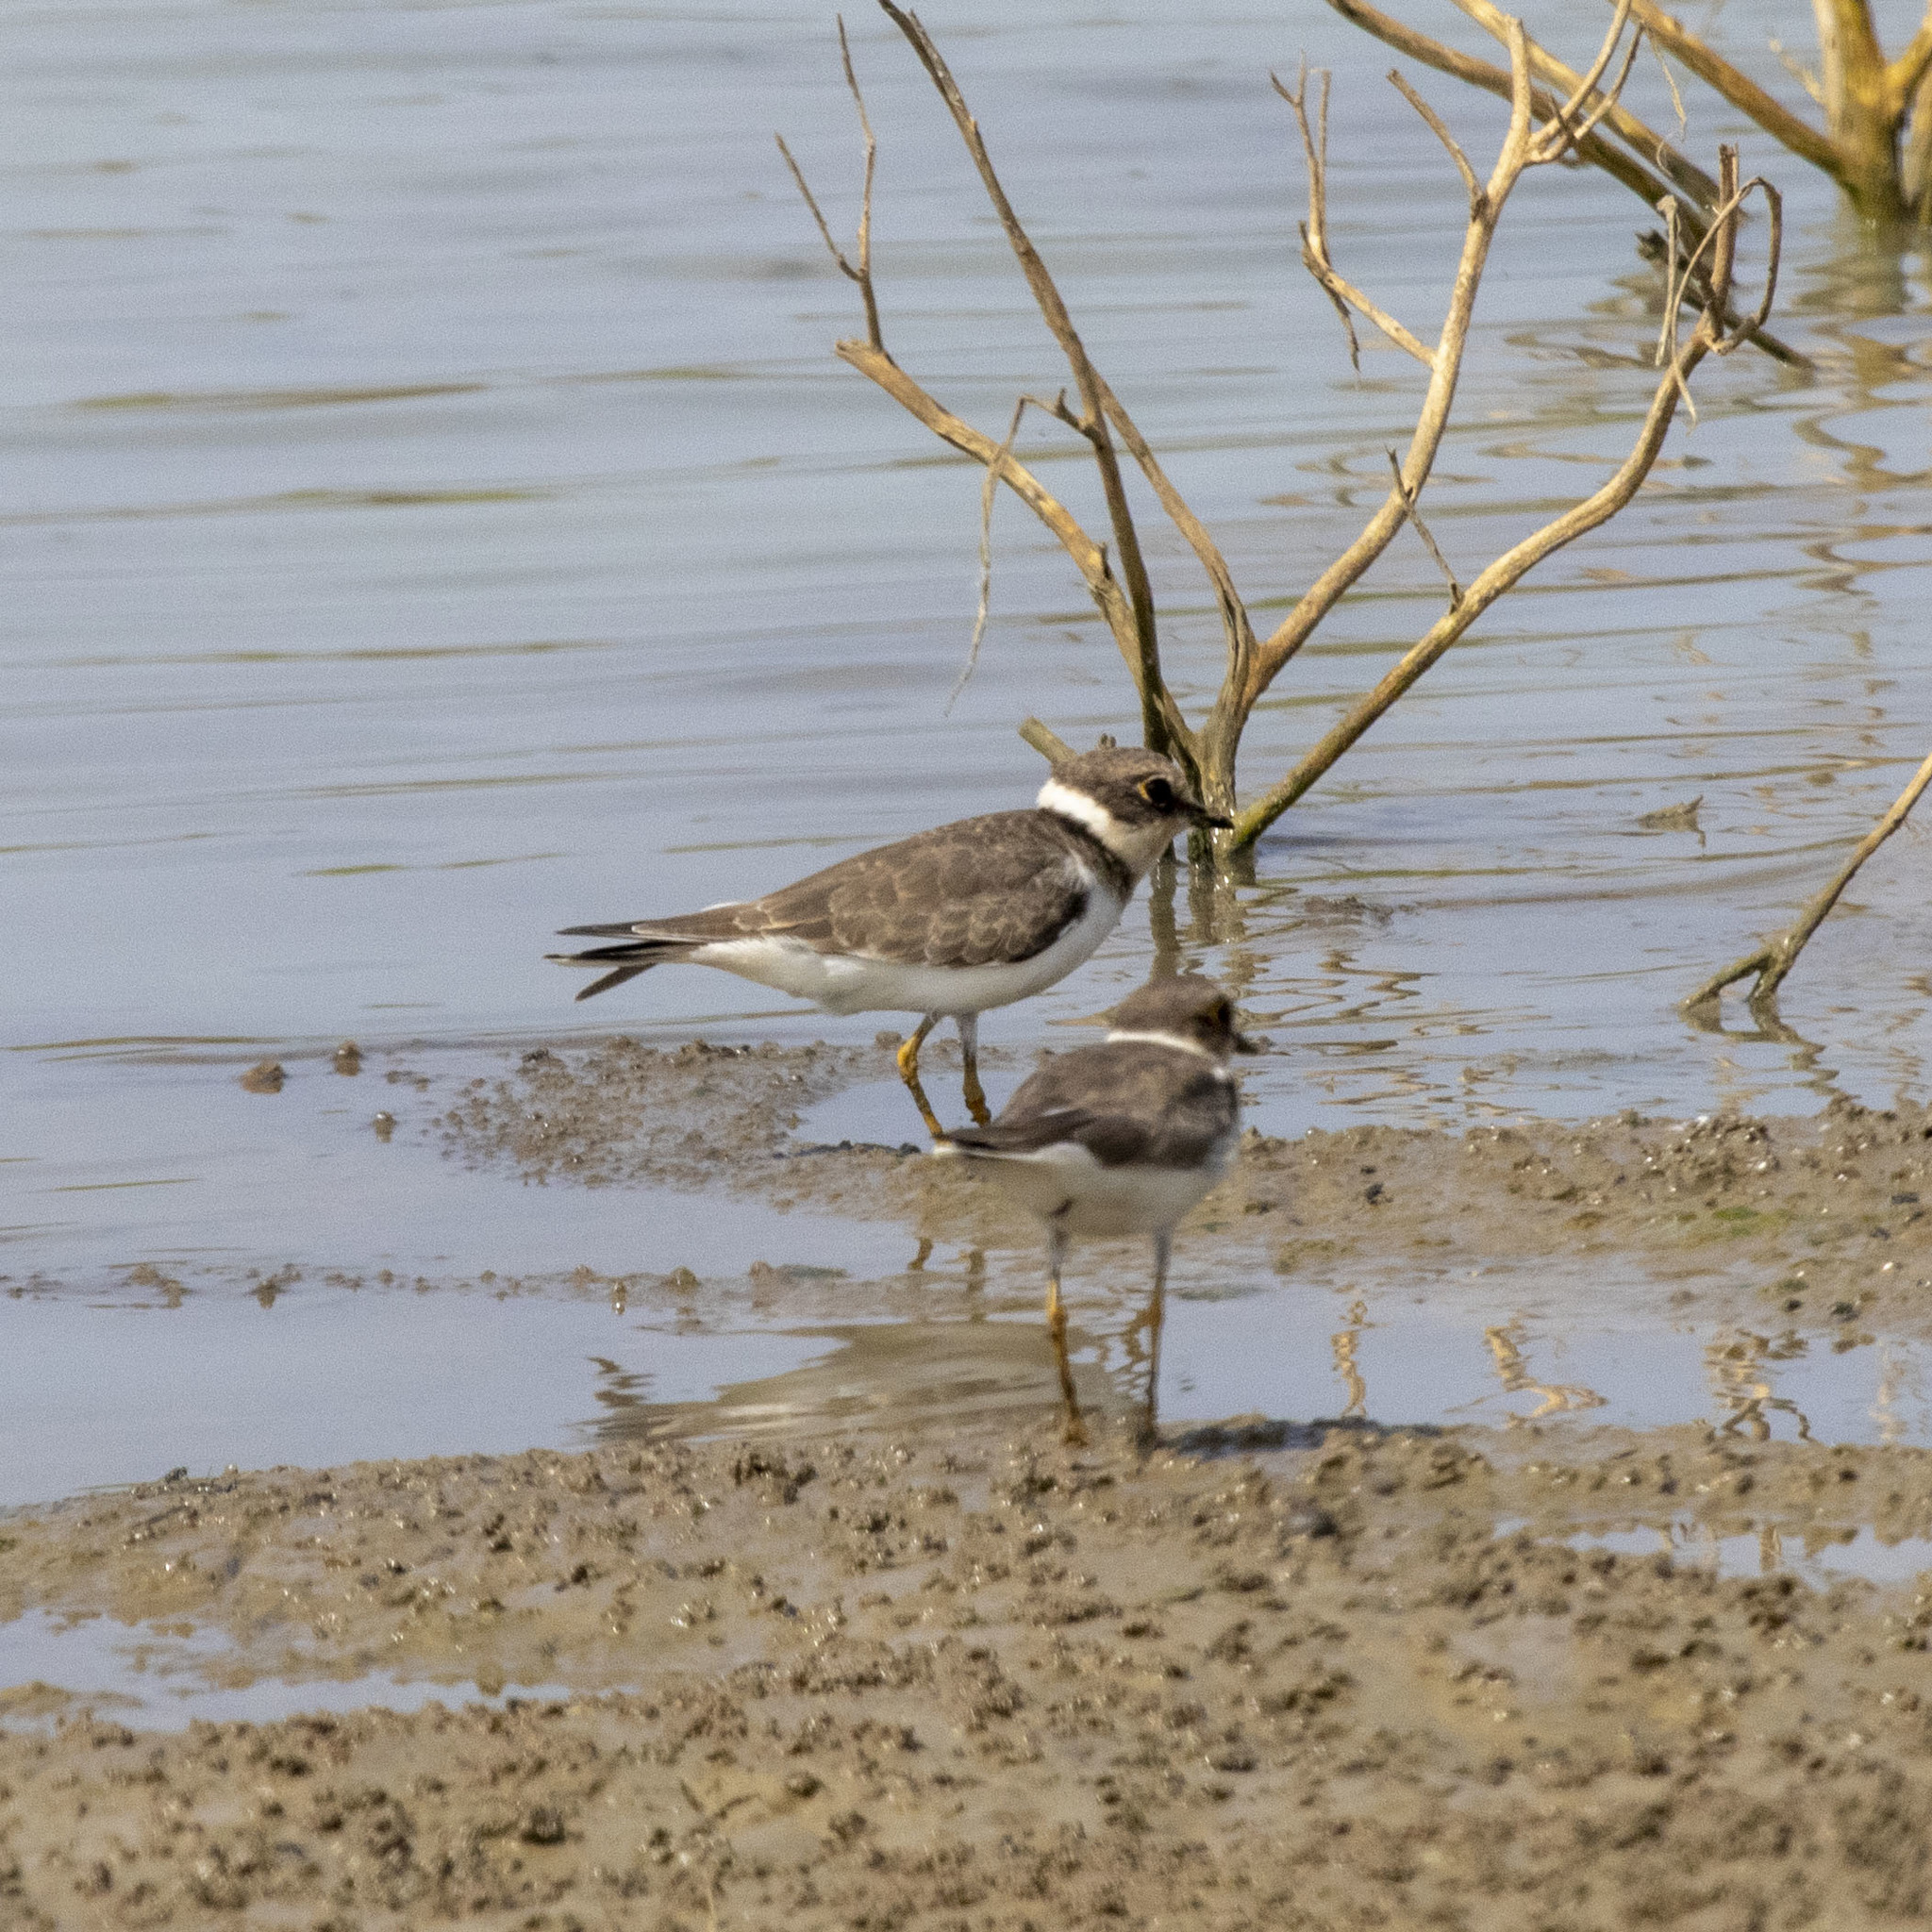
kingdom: Animalia
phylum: Chordata
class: Aves
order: Charadriiformes
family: Charadriidae
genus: Charadrius
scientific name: Charadrius dubius
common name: Little ringed plover
